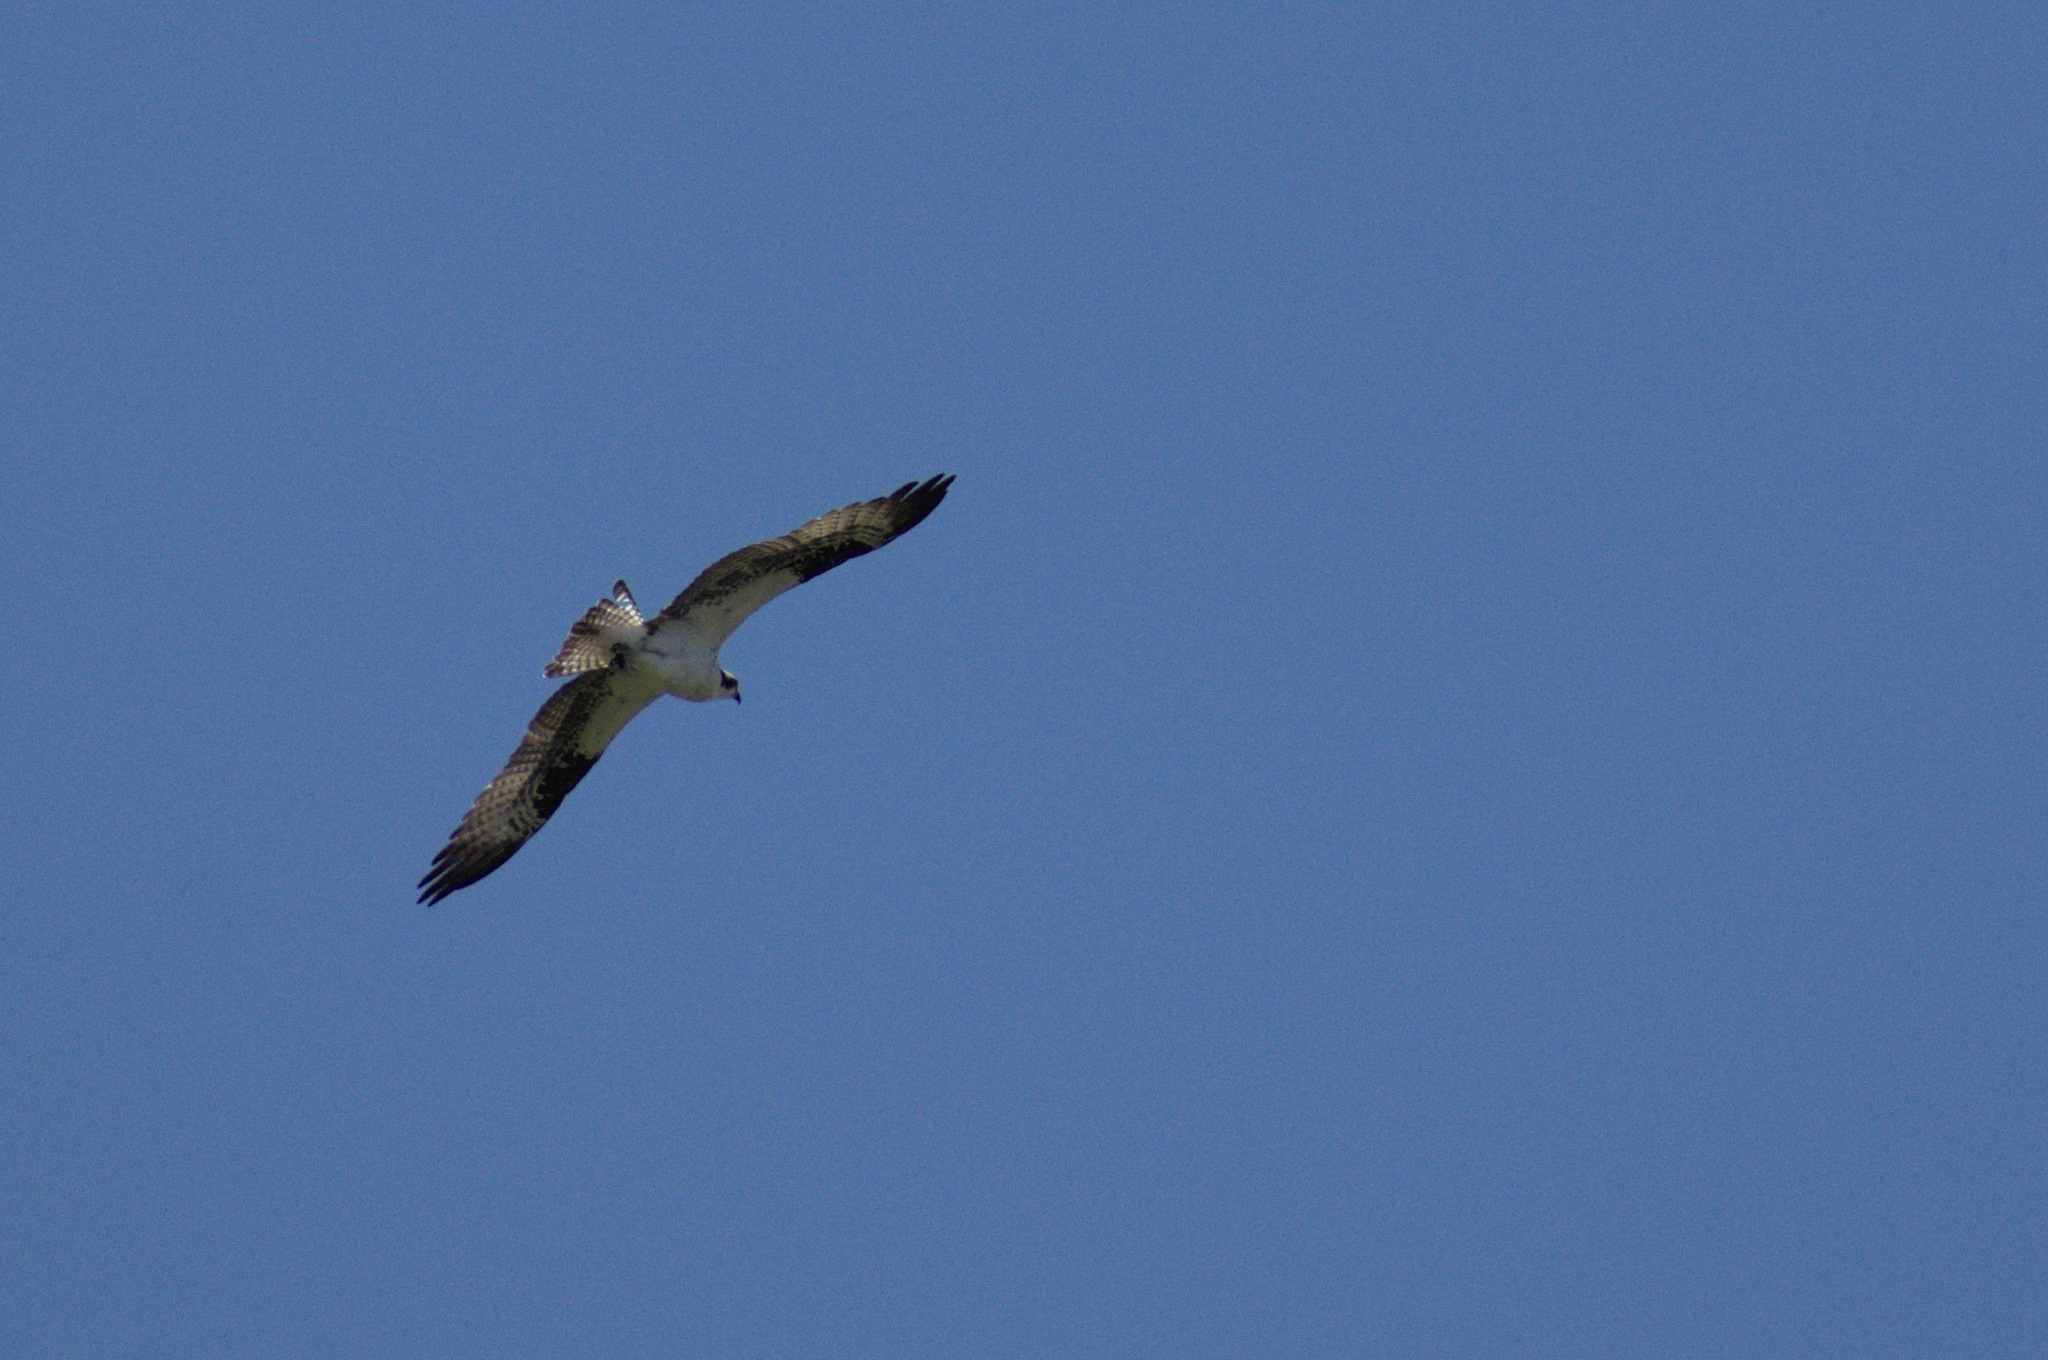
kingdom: Animalia
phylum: Chordata
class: Aves
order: Accipitriformes
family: Pandionidae
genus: Pandion
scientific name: Pandion haliaetus
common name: Osprey
